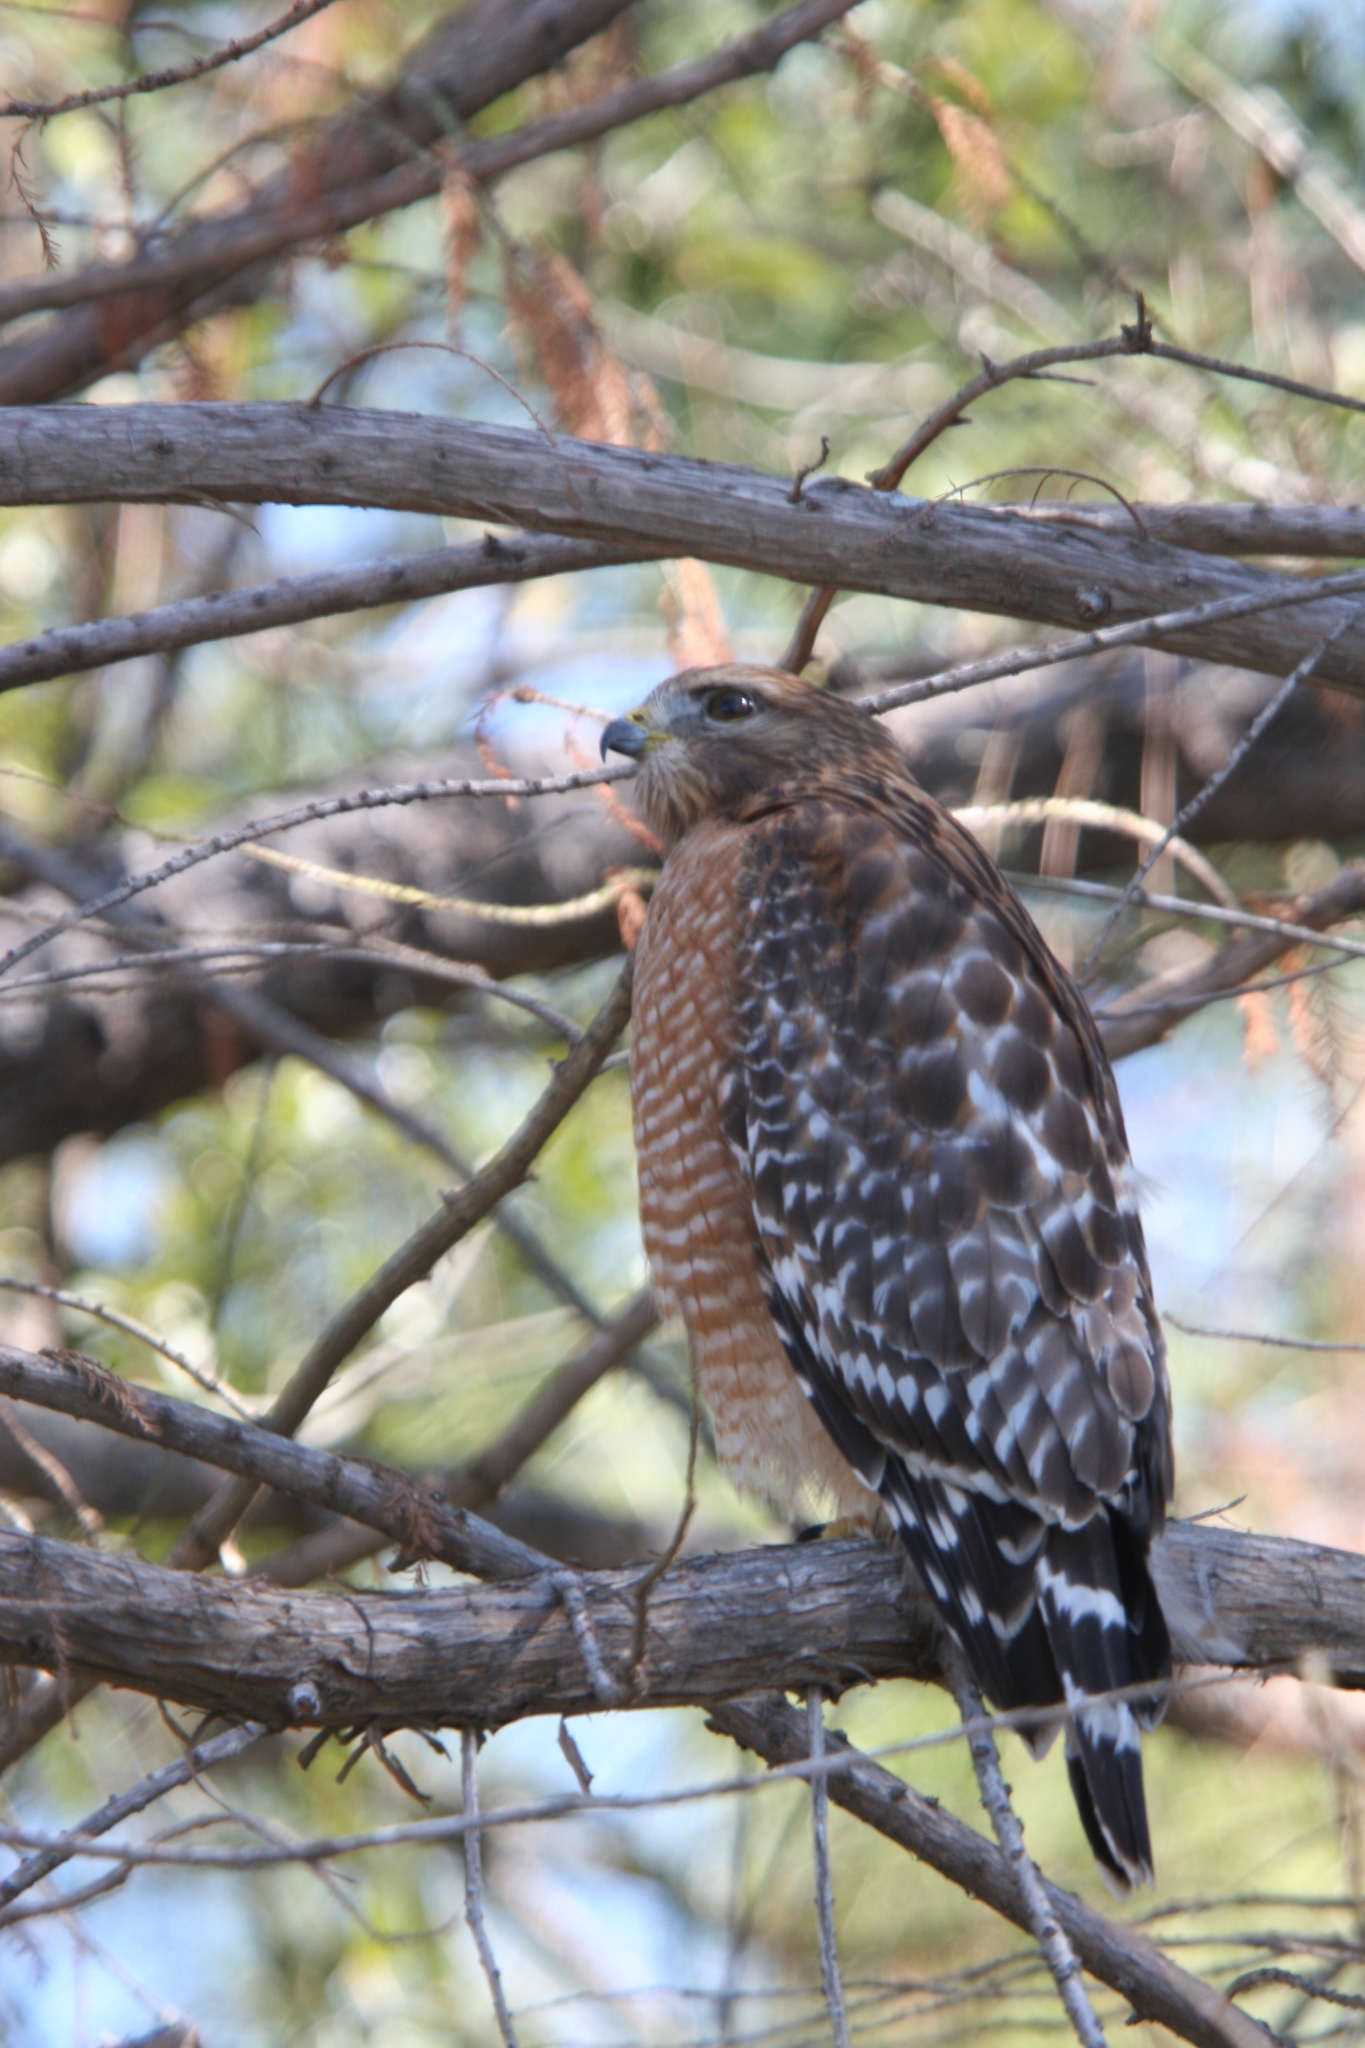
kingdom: Animalia
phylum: Chordata
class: Aves
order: Accipitriformes
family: Accipitridae
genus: Buteo
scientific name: Buteo lineatus
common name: Red-shouldered hawk
